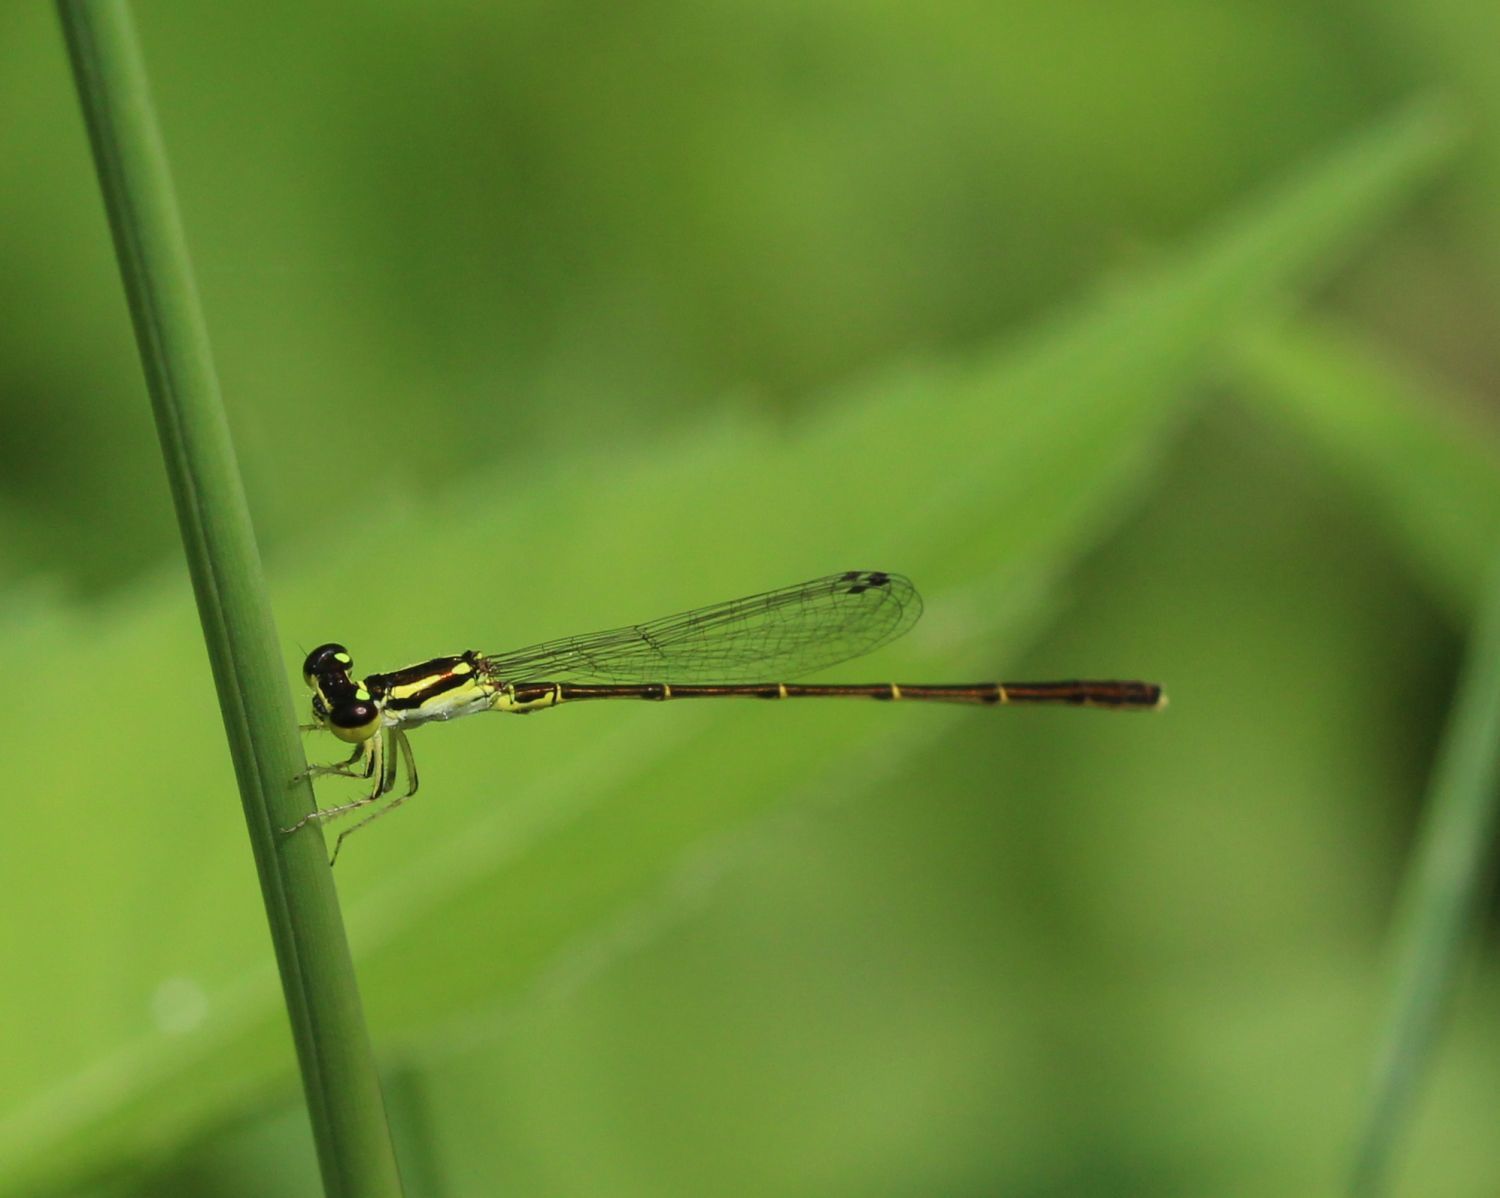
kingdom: Animalia
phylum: Arthropoda
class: Insecta
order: Odonata
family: Coenagrionidae
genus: Ischnura
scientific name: Ischnura posita
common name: Fragile forktail
